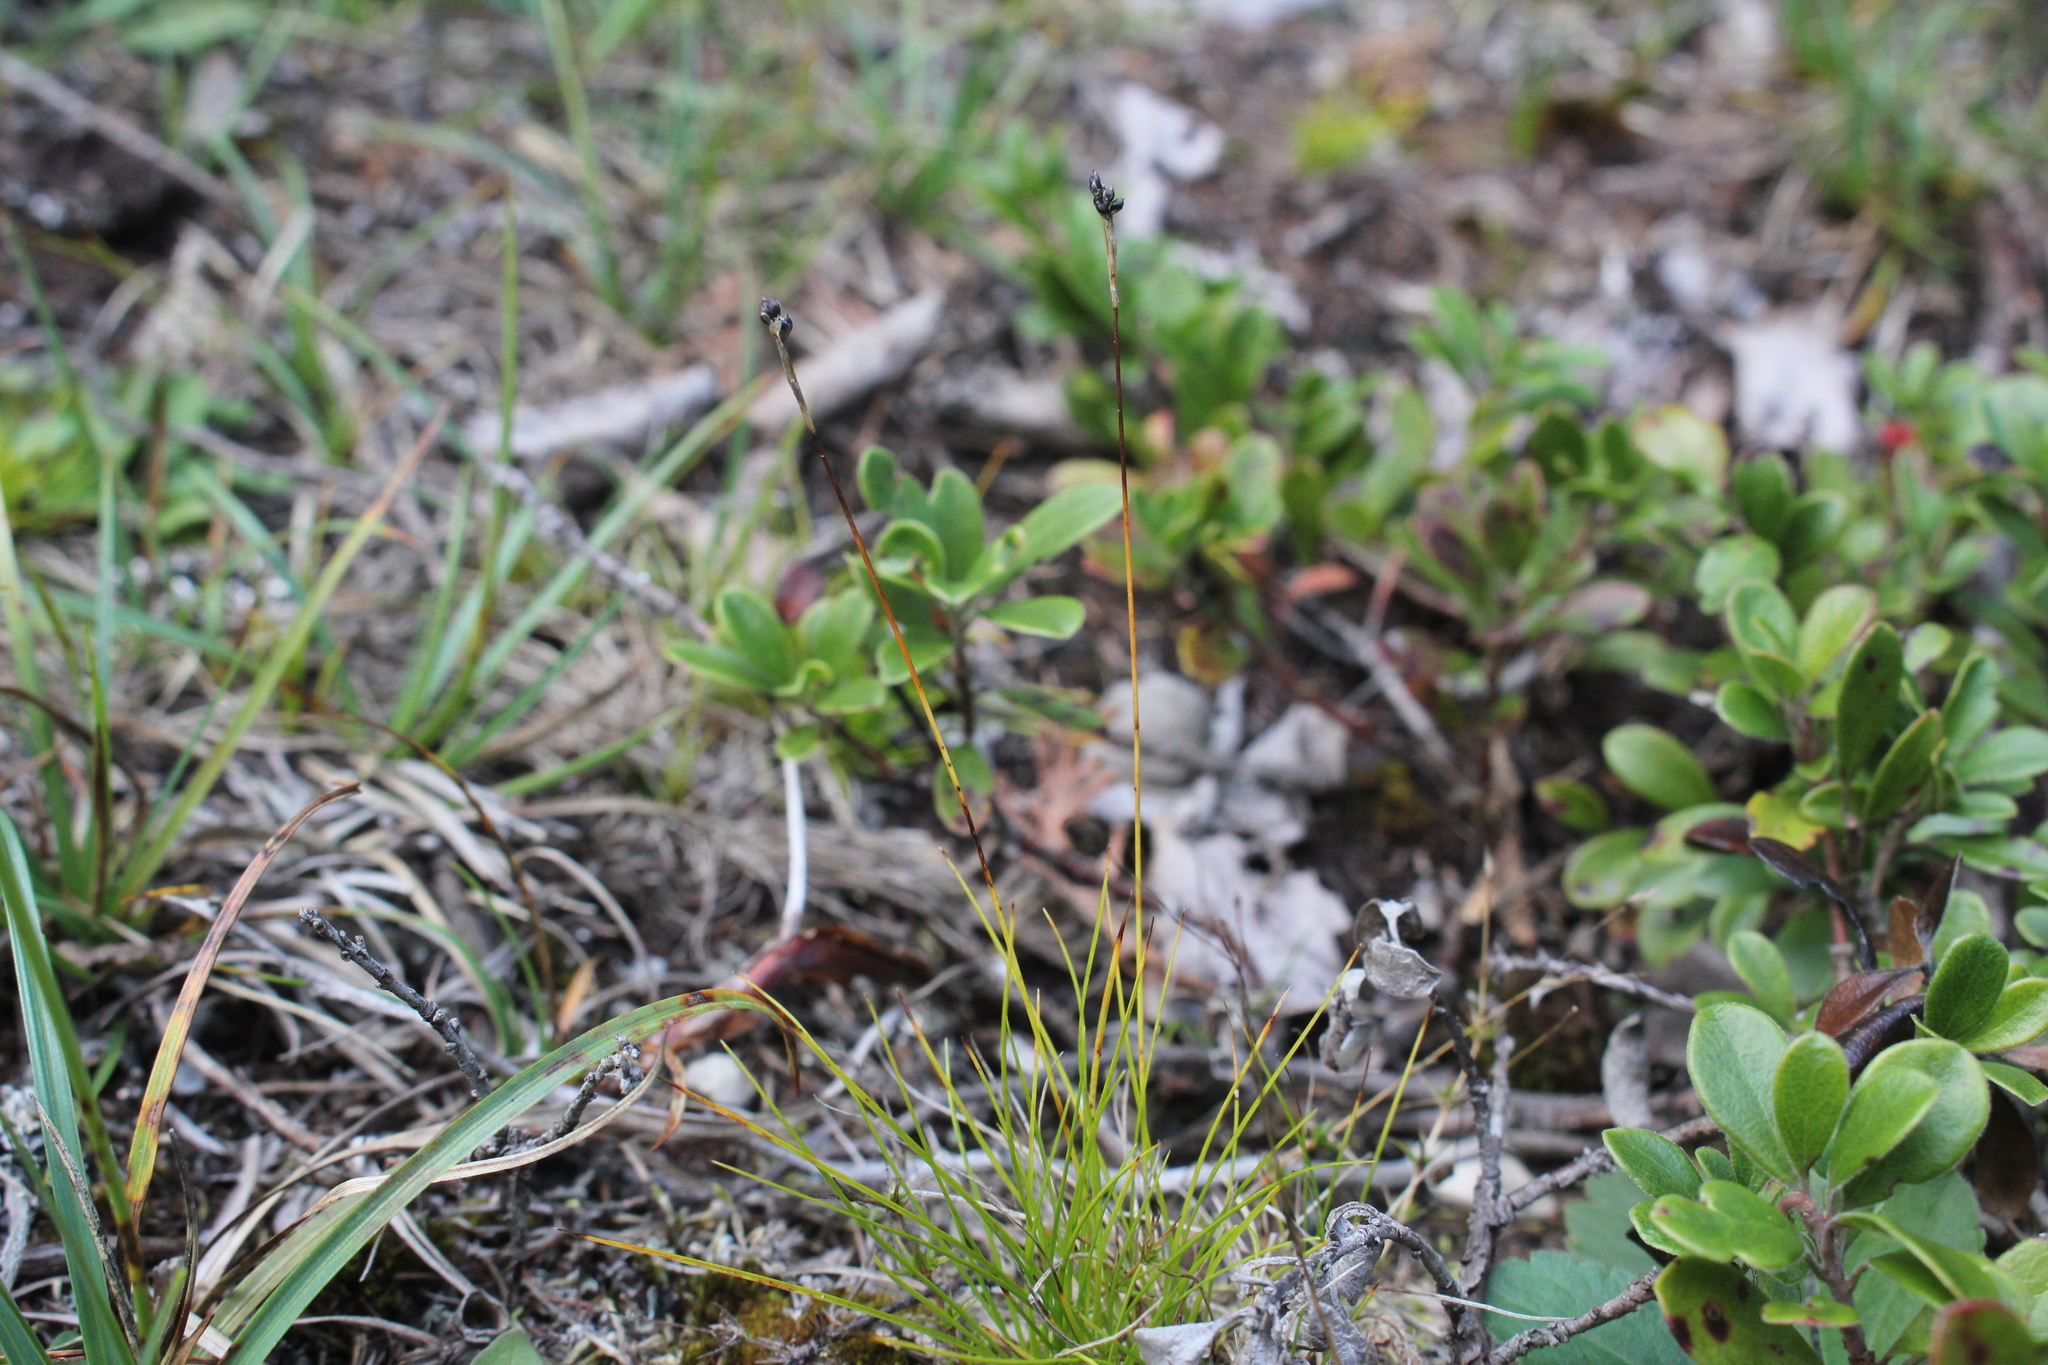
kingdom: Plantae
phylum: Tracheophyta
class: Liliopsida
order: Poales
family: Cyperaceae
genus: Carex
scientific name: Carex eburnea
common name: Bristle-leaved sedge
